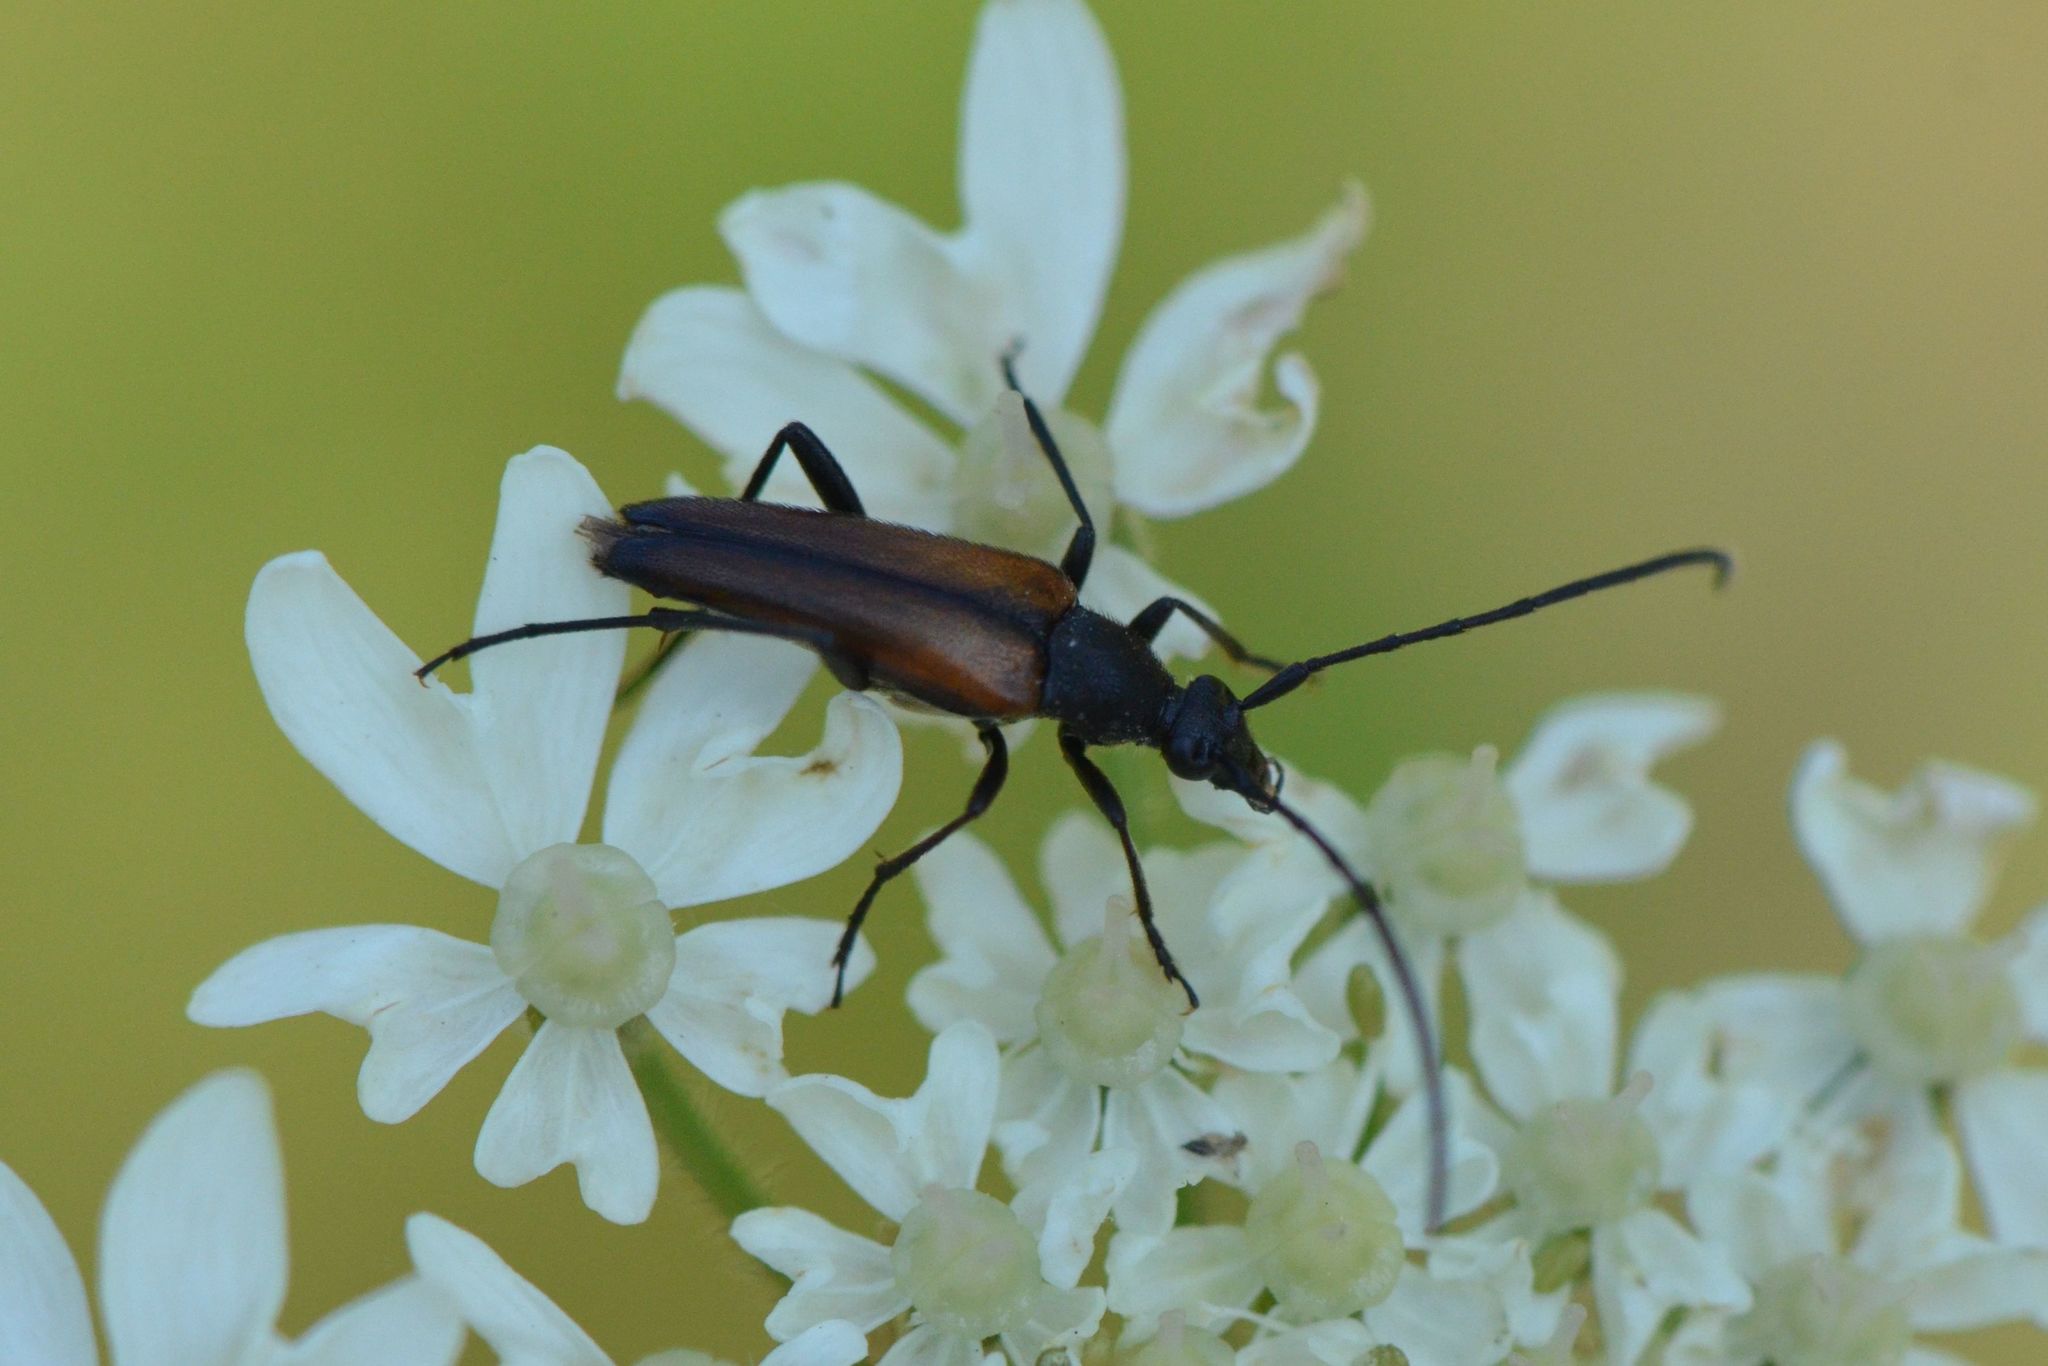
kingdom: Animalia
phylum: Arthropoda
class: Insecta
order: Coleoptera
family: Cerambycidae
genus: Stenurella
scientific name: Stenurella melanura
